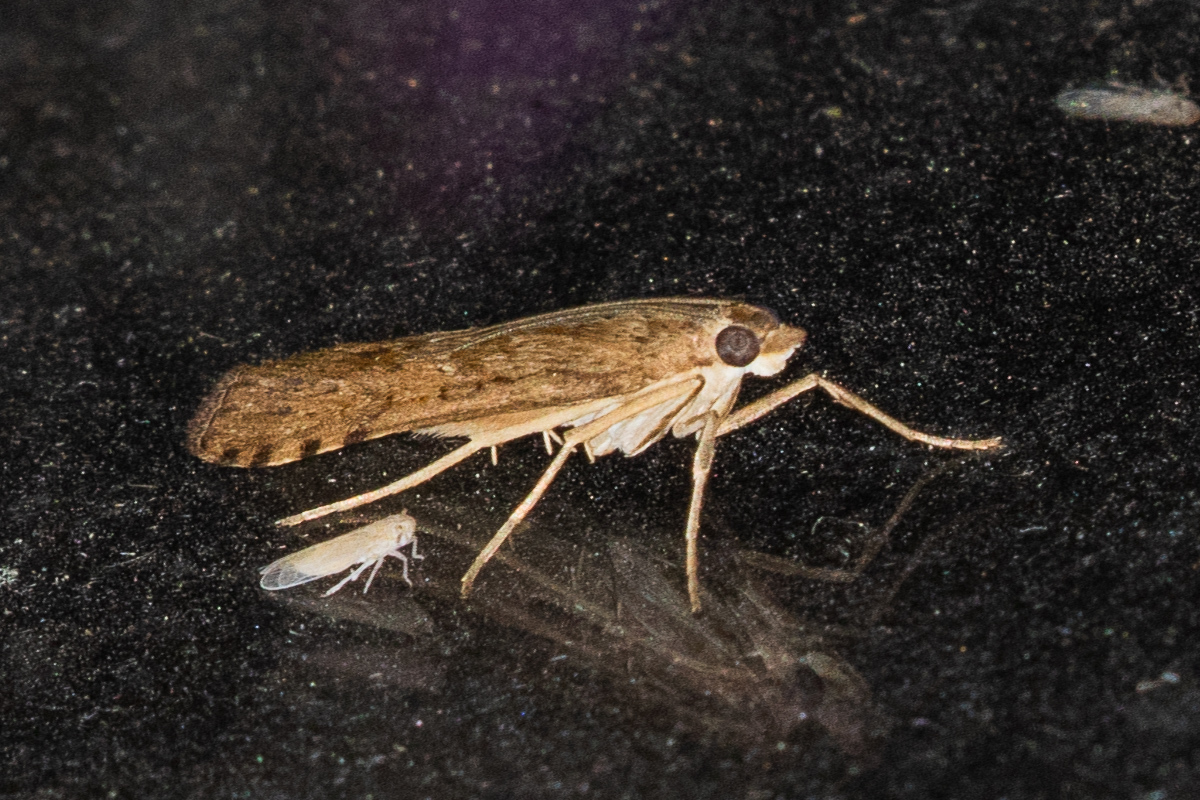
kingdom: Animalia
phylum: Arthropoda
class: Insecta
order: Lepidoptera
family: Crambidae
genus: Nomophila
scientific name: Nomophila nearctica
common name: American rush veneer
